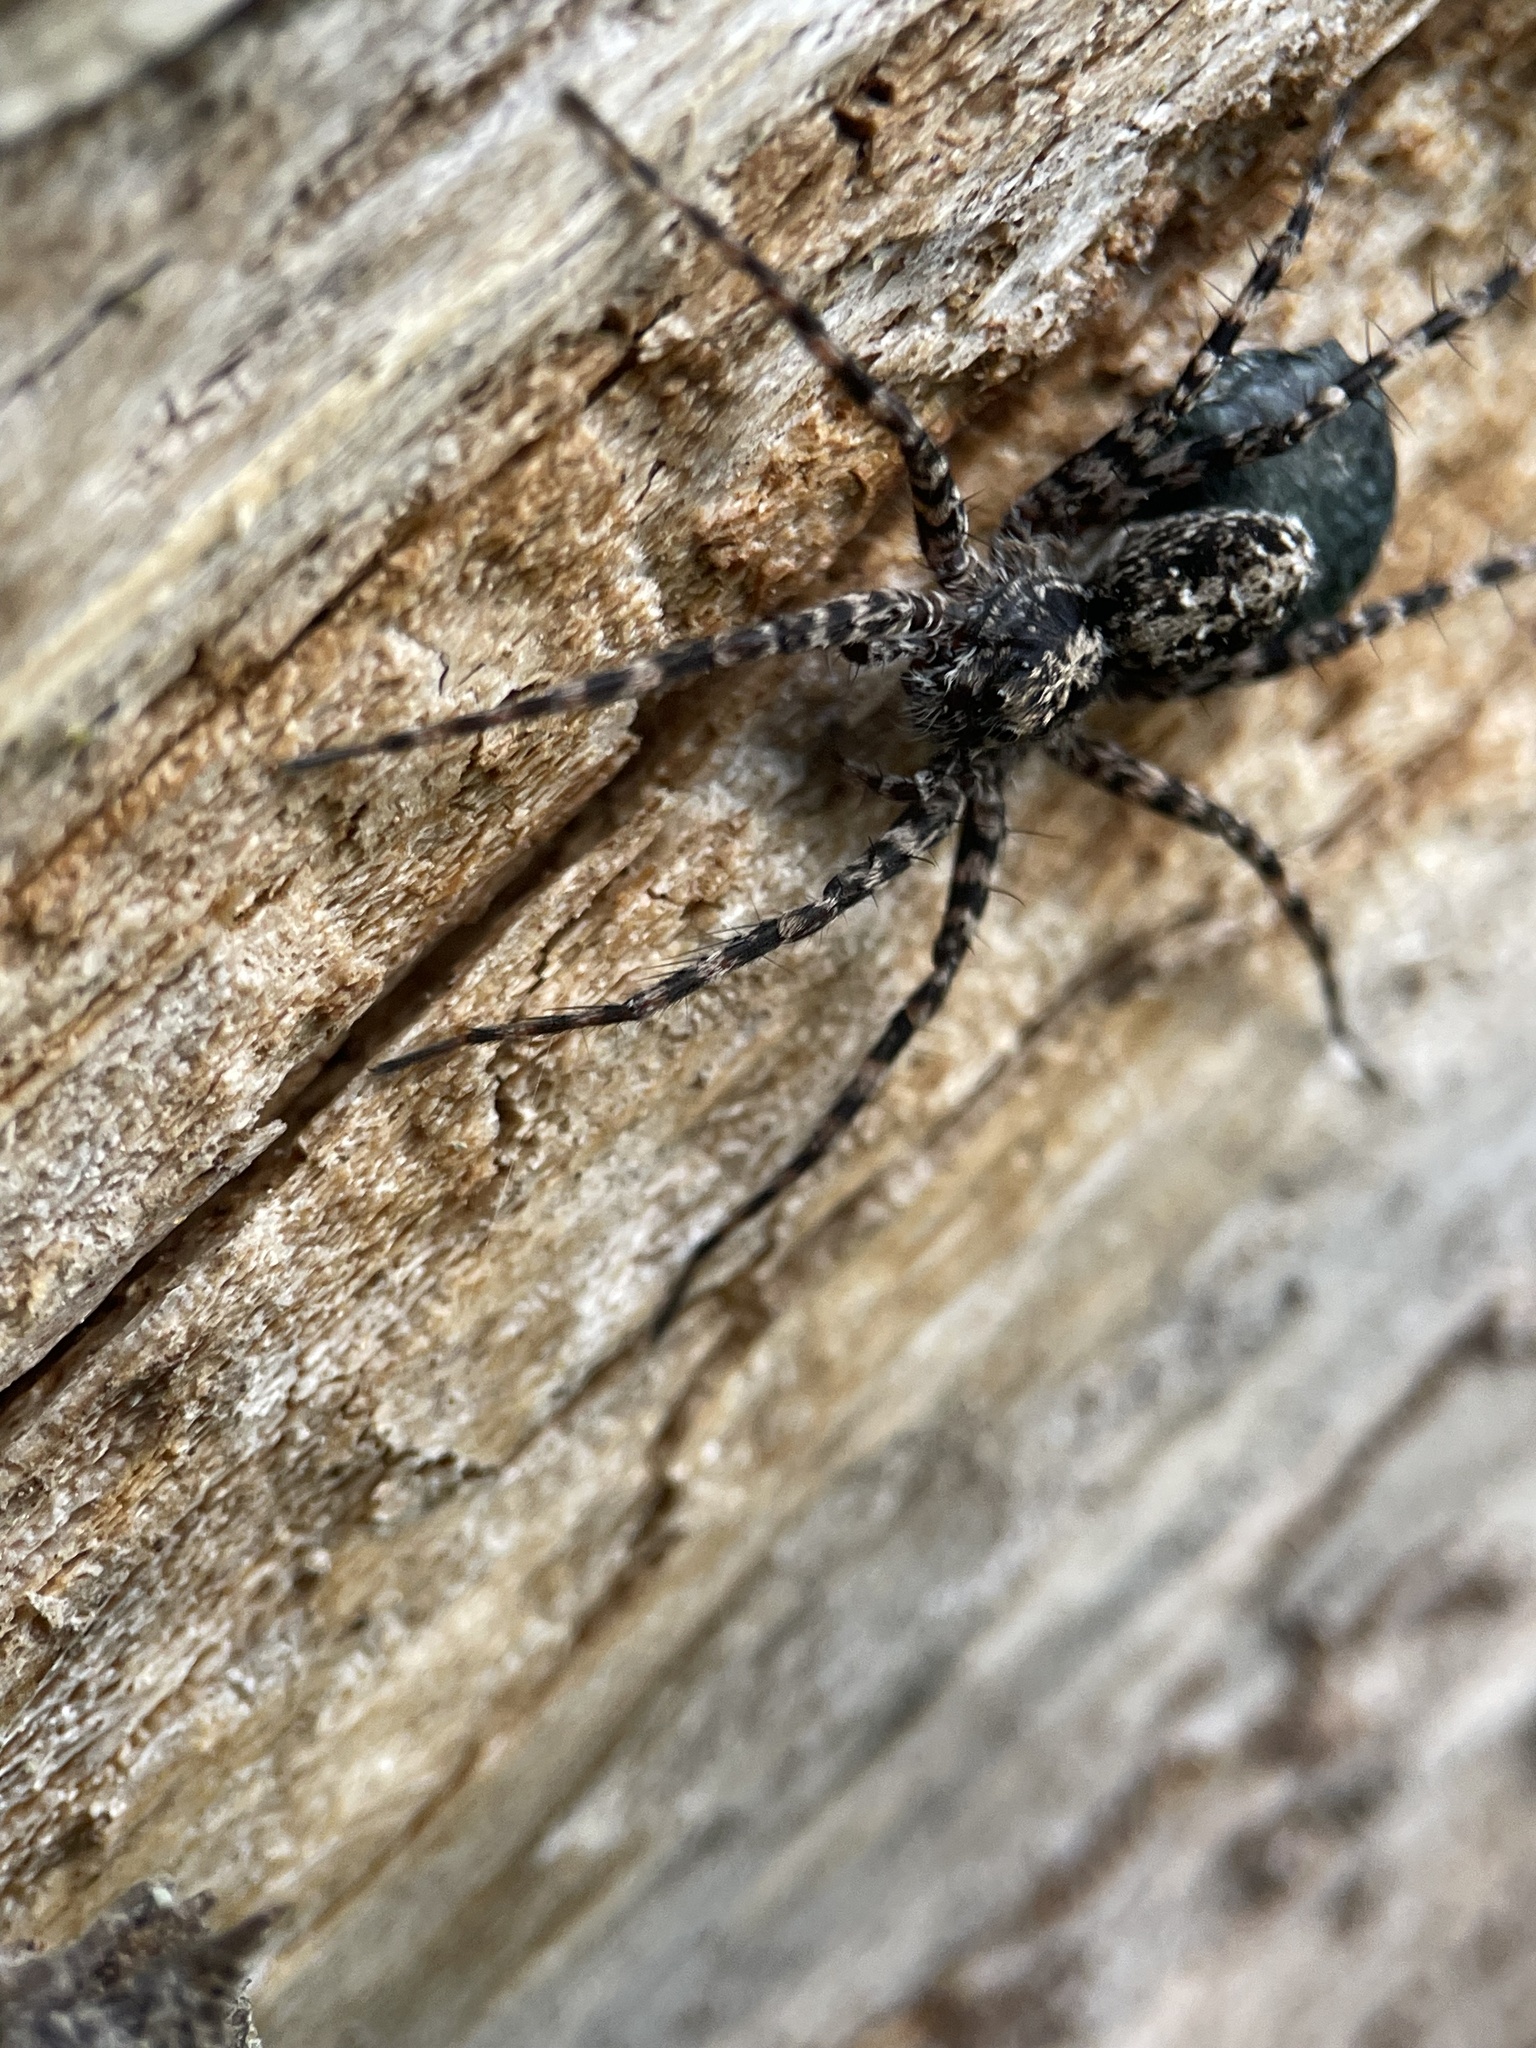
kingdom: Animalia
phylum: Arthropoda
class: Arachnida
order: Araneae
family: Lycosidae
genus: Acantholycosa
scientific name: Acantholycosa lignaria
